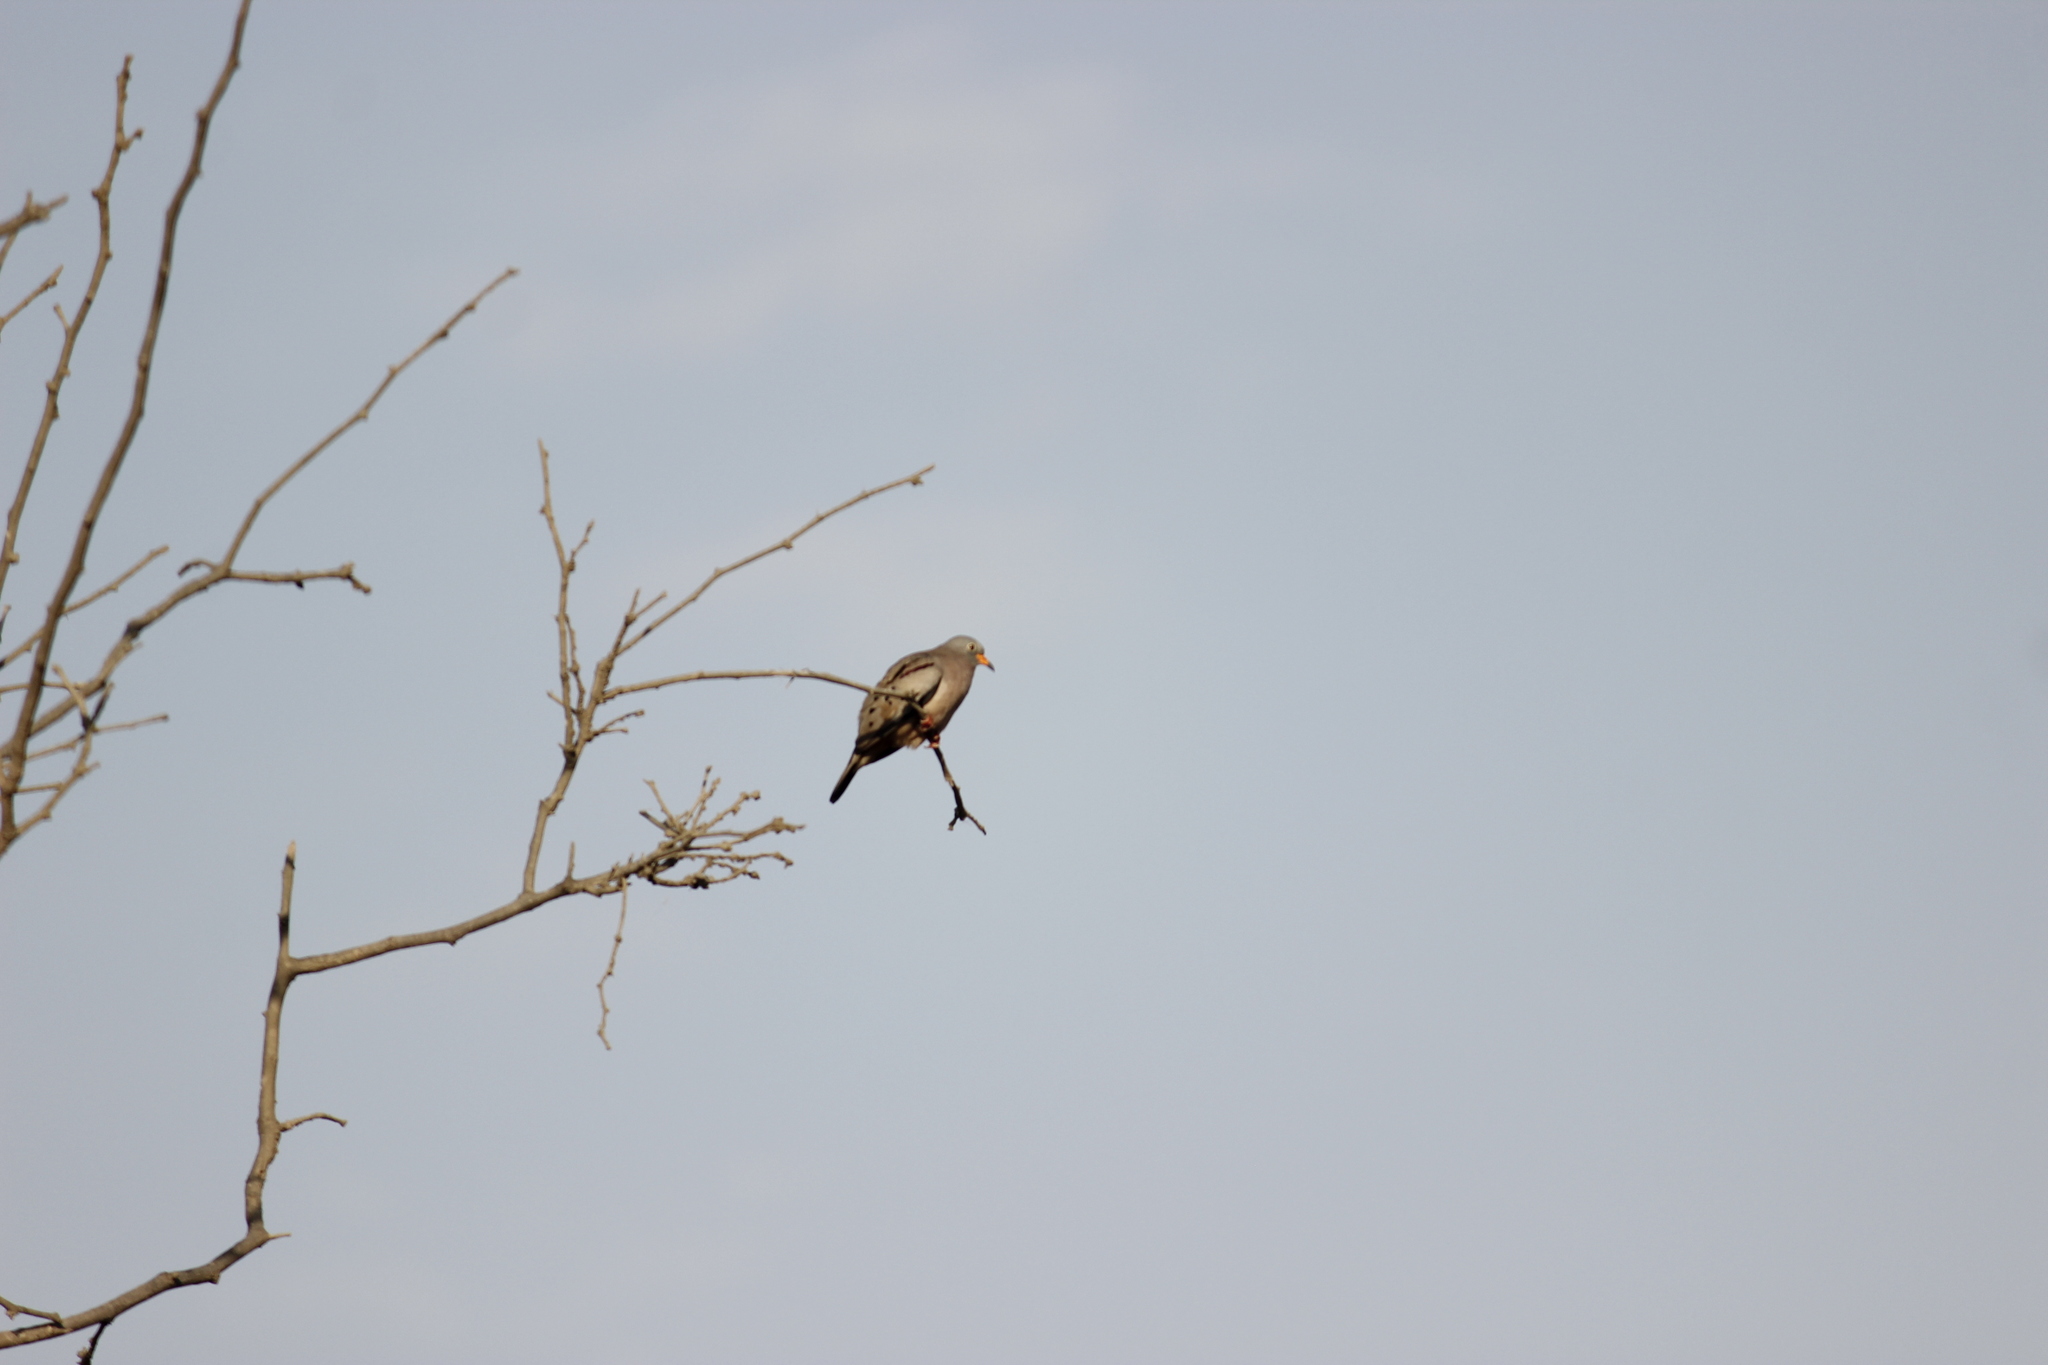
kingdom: Animalia
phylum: Chordata
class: Aves
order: Columbiformes
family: Columbidae
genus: Columbina
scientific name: Columbina cruziana
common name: Croaking ground dove
